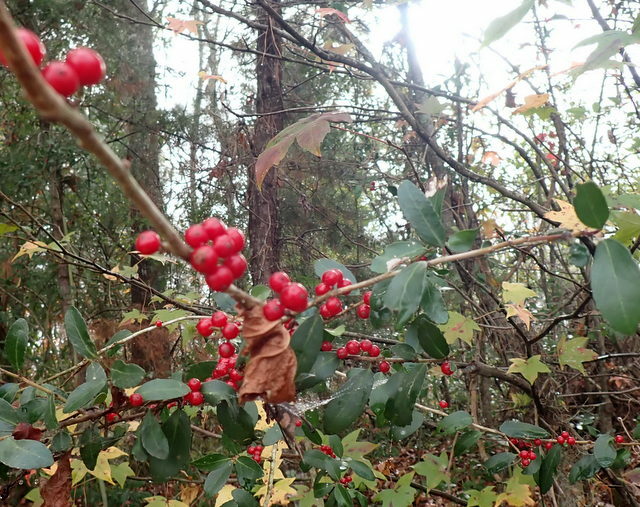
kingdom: Plantae
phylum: Tracheophyta
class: Magnoliopsida
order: Aquifoliales
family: Aquifoliaceae
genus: Ilex
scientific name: Ilex vomitoria
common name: Yaupon holly
